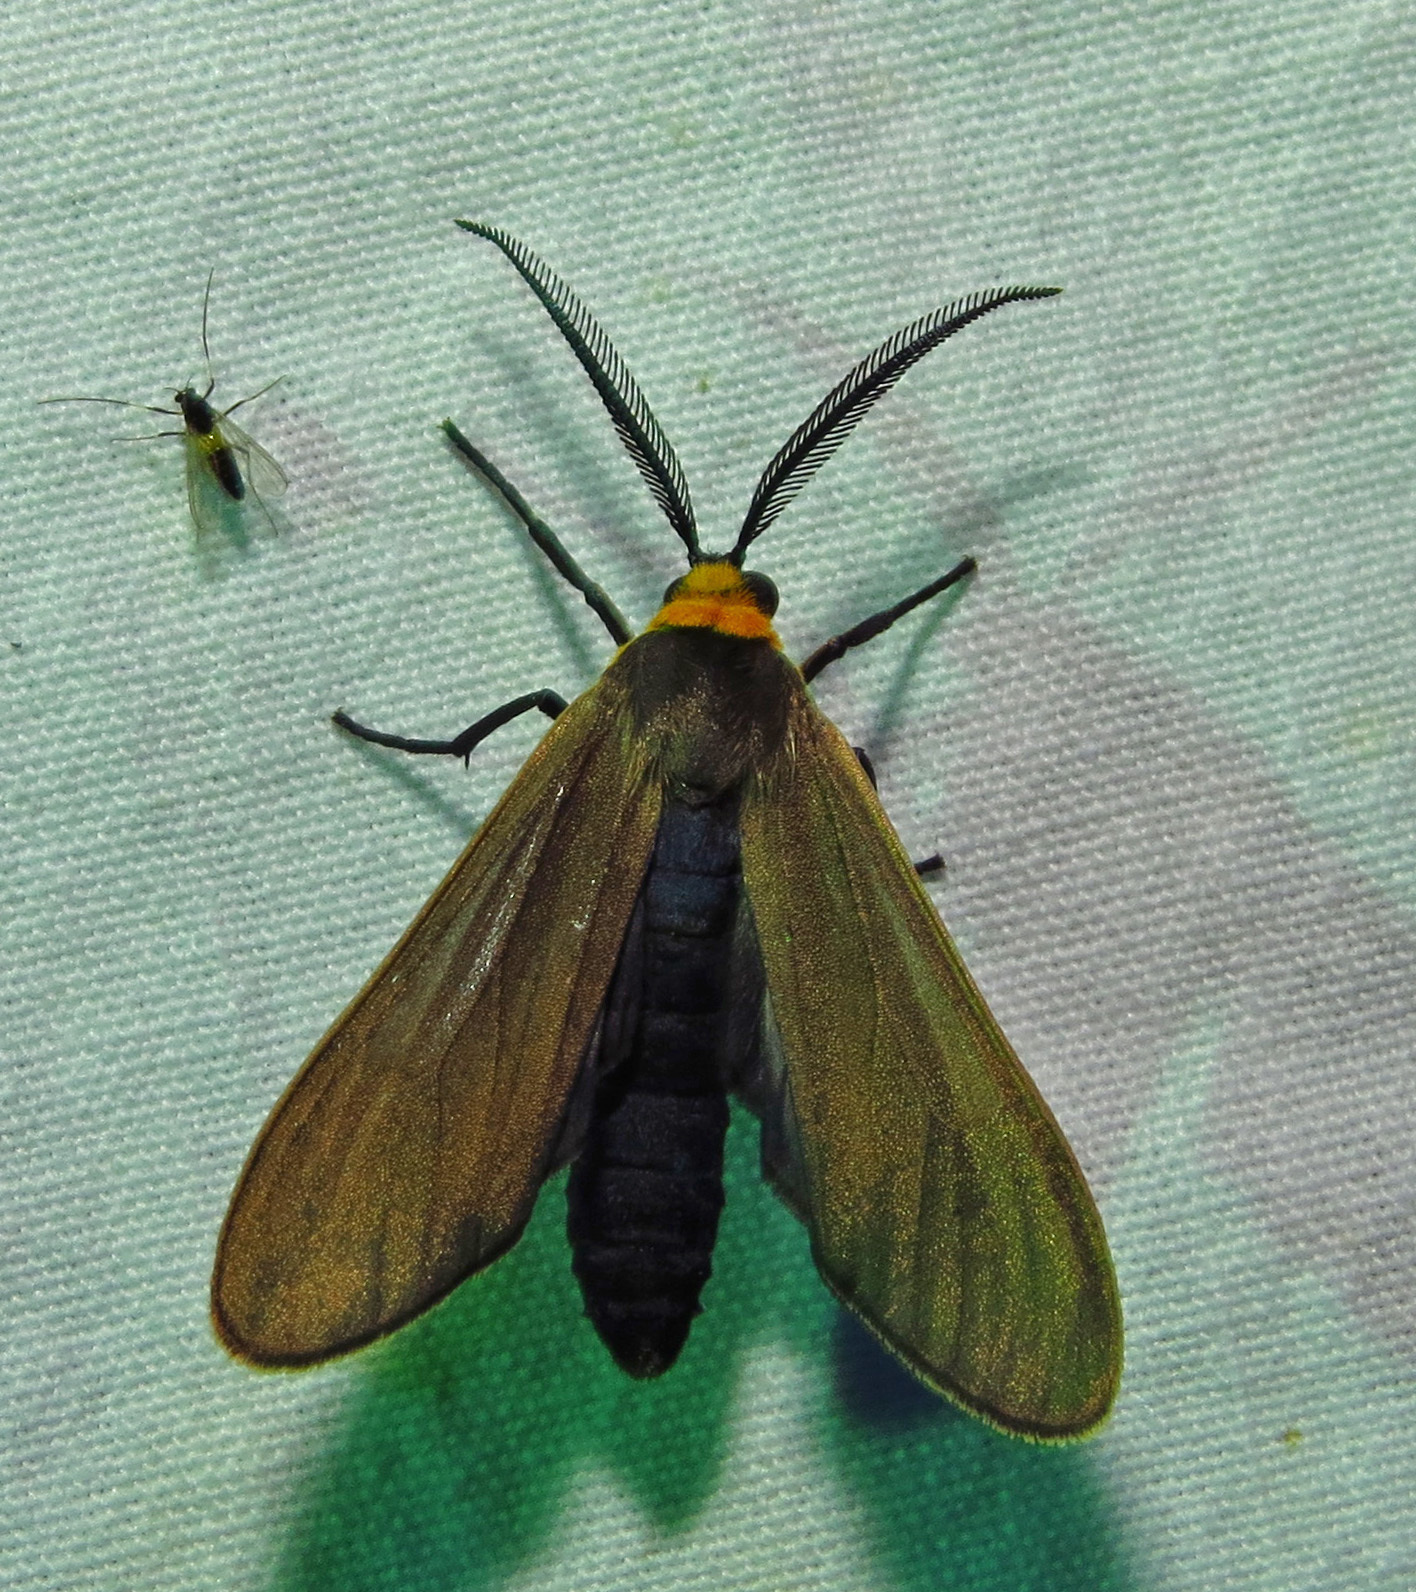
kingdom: Animalia
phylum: Arthropoda
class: Insecta
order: Lepidoptera
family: Erebidae
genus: Cisseps
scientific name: Cisseps fulvicollis
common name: Yellow-collared scape moth
